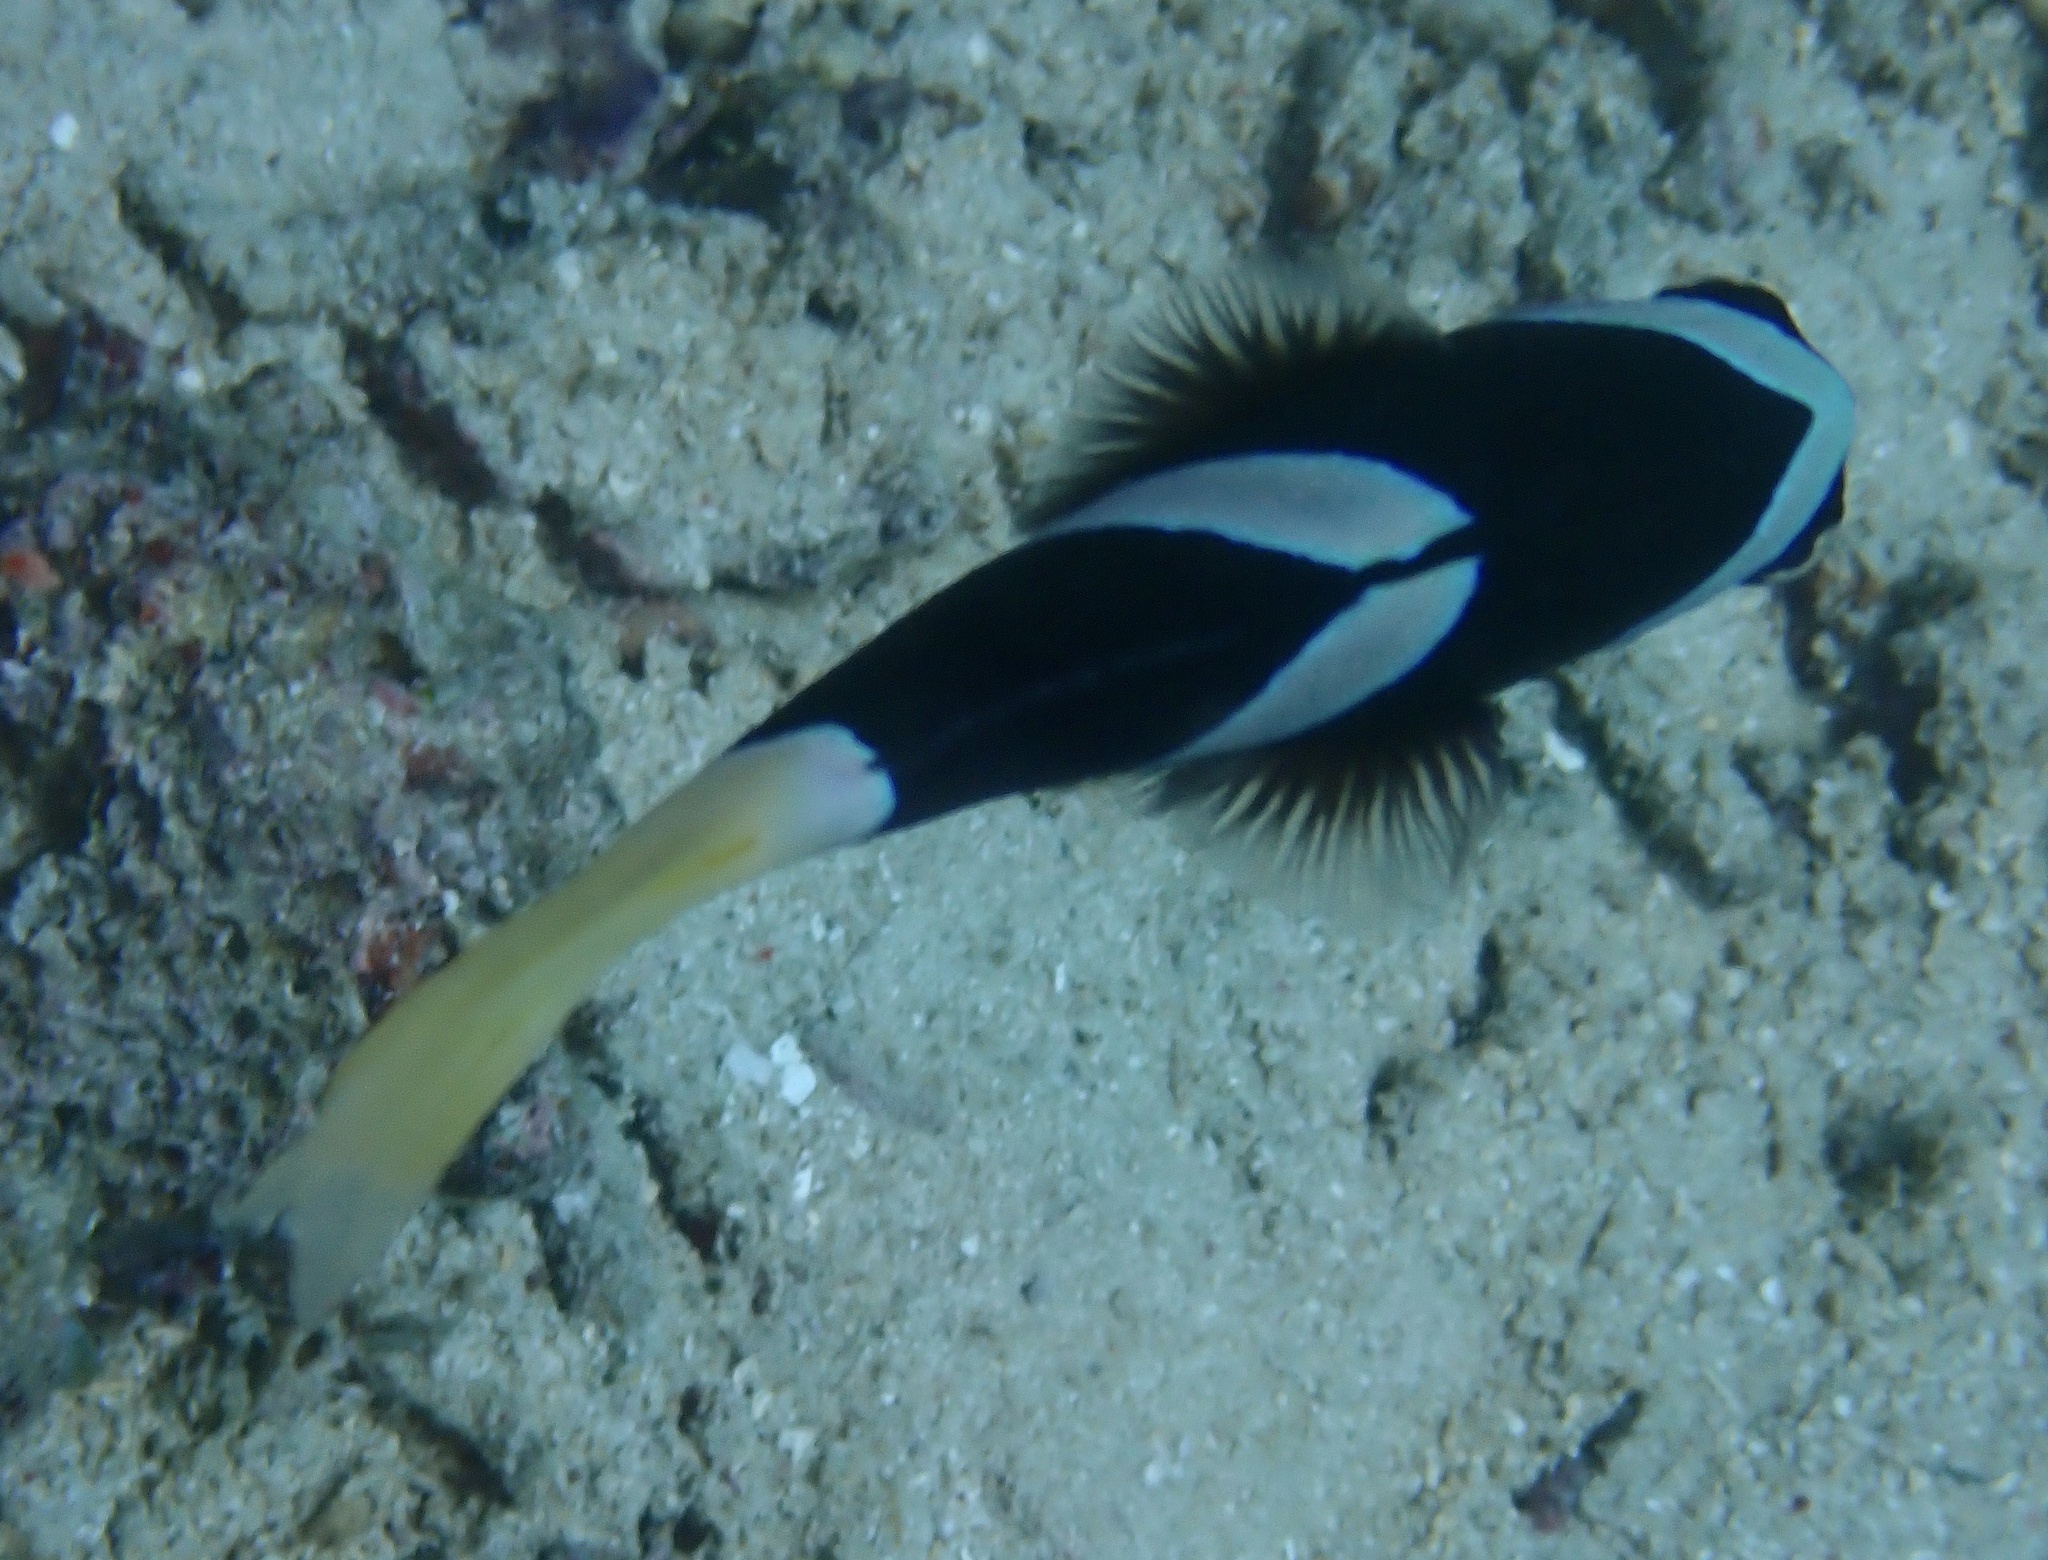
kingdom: Animalia
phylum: Chordata
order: Perciformes
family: Pomacentridae
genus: Amphiprion
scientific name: Amphiprion clarkii
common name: Clark's anemonefish
